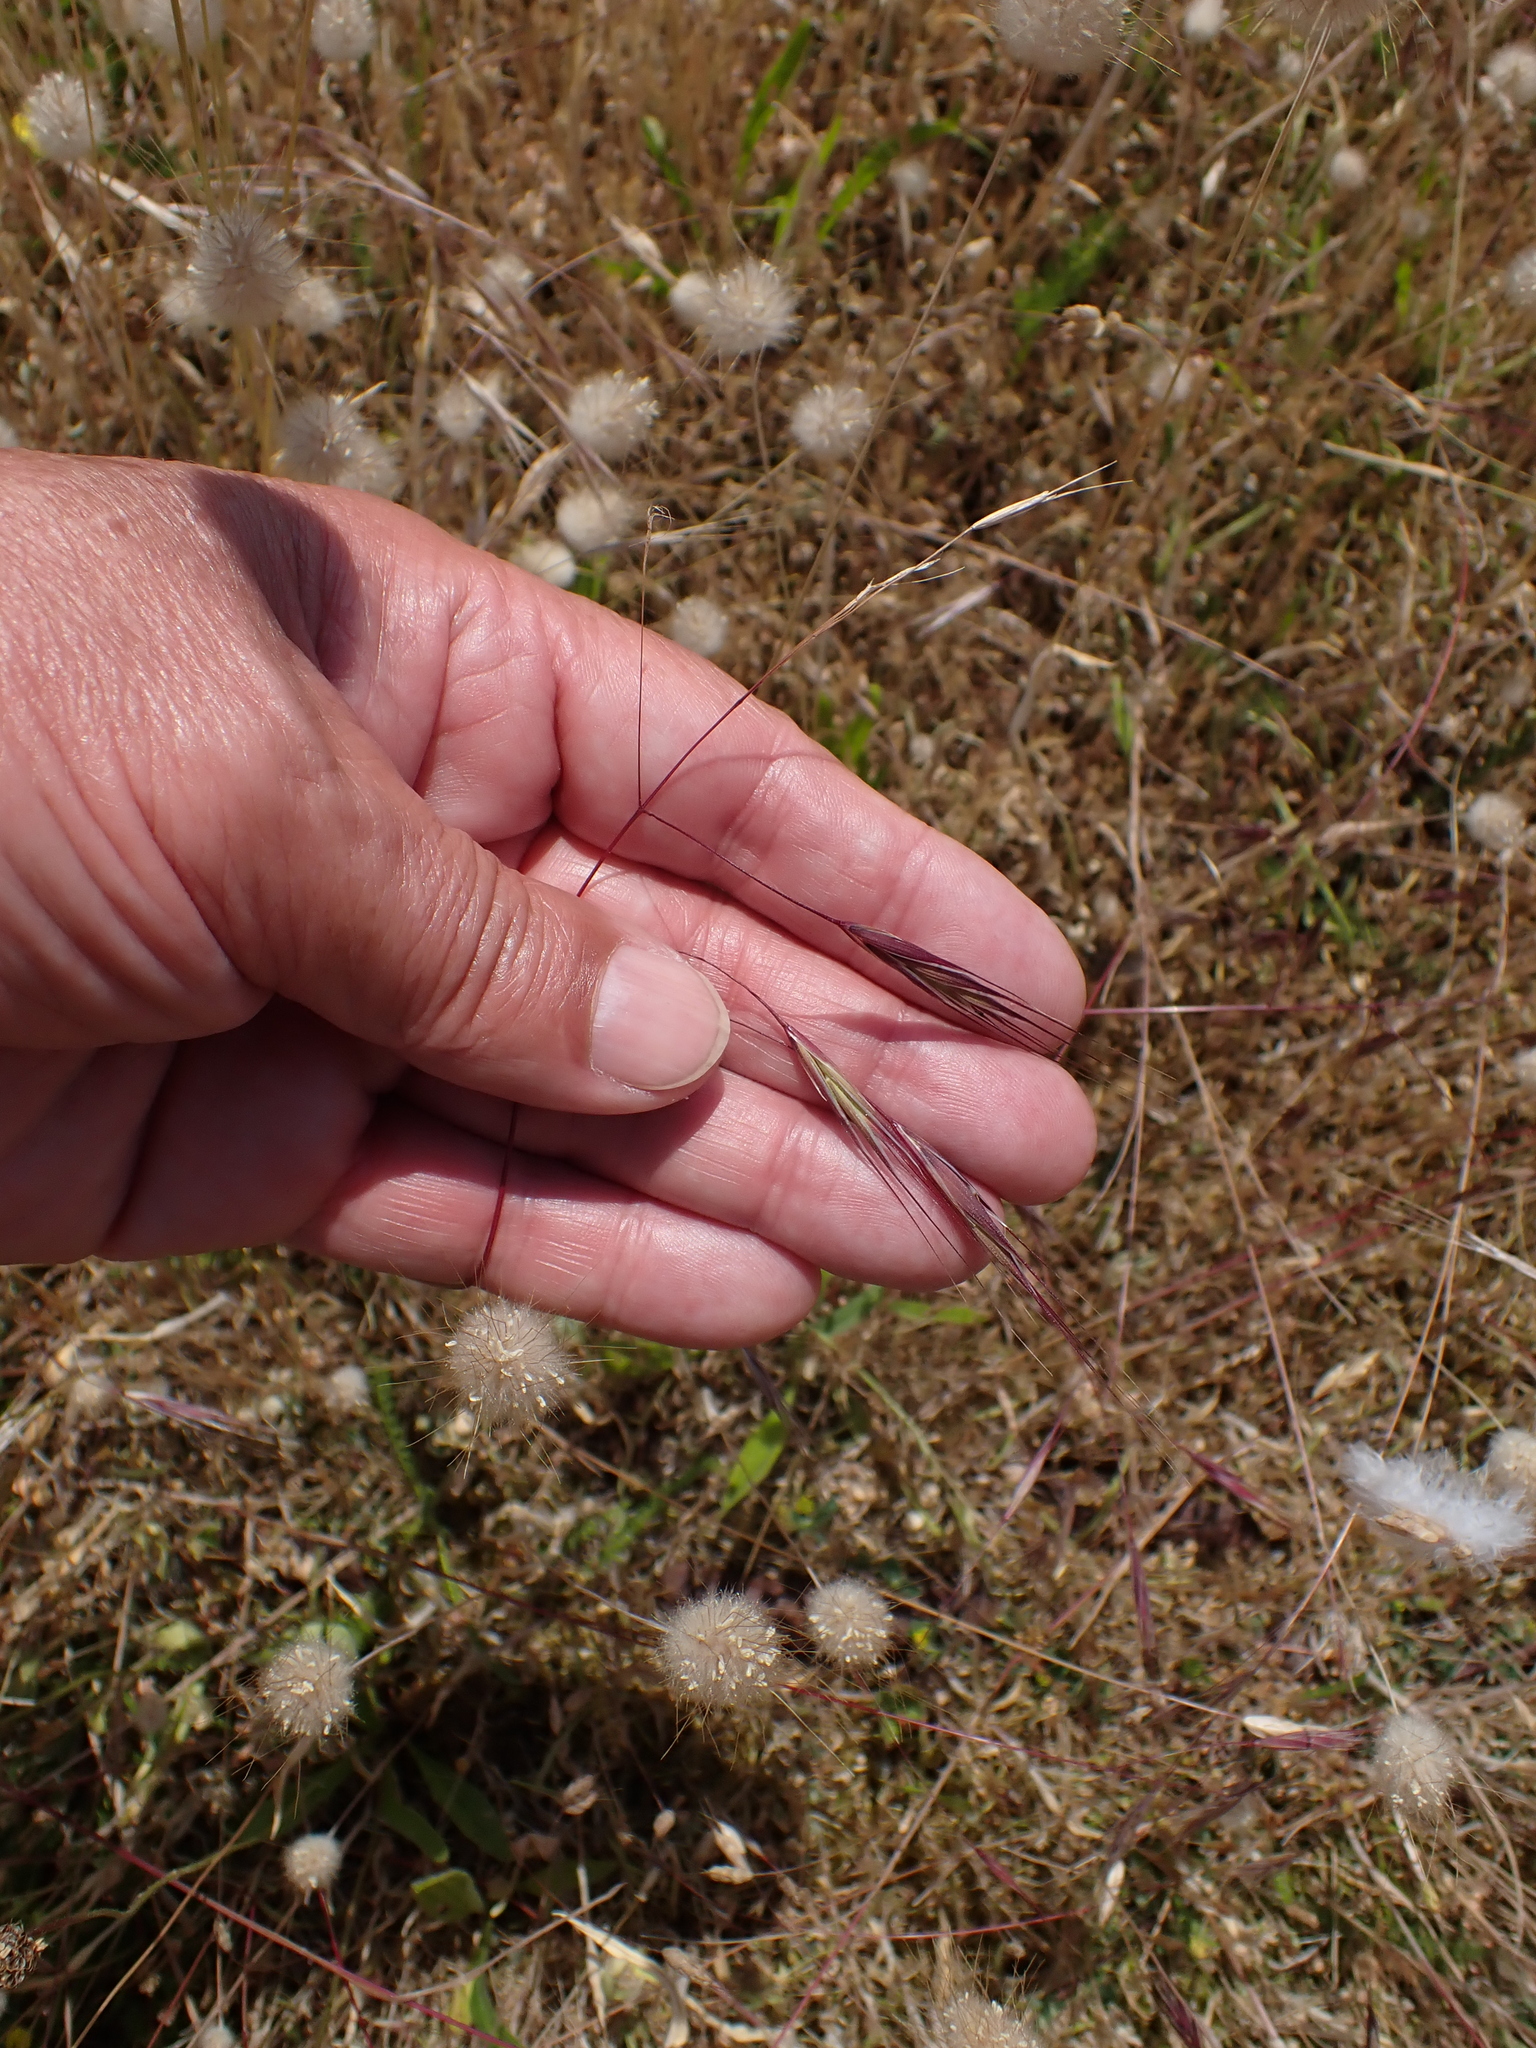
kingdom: Plantae
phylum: Tracheophyta
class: Liliopsida
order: Poales
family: Poaceae
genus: Bromus
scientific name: Bromus sterilis
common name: Poverty brome
